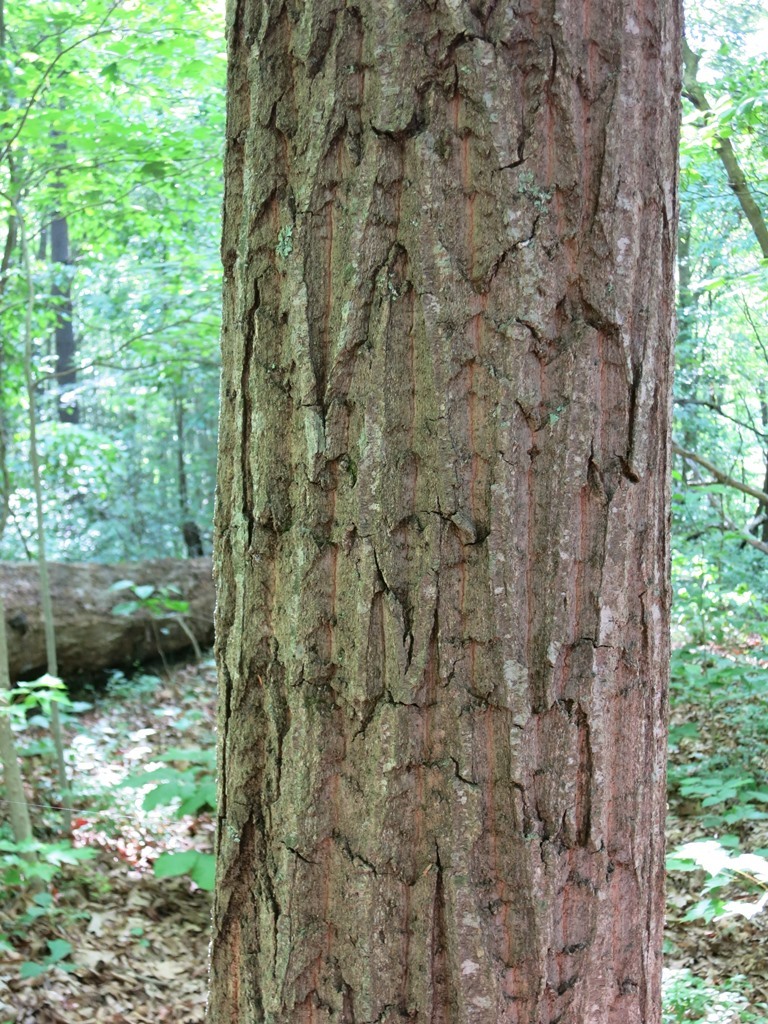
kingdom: Plantae
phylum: Tracheophyta
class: Magnoliopsida
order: Fagales
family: Fagaceae
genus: Quercus
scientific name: Quercus montana
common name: Chestnut oak
